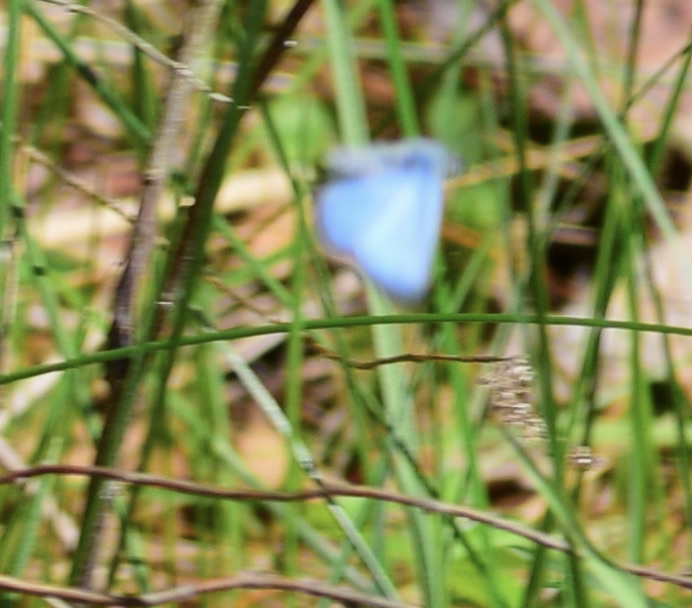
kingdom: Animalia
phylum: Arthropoda
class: Insecta
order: Lepidoptera
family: Lycaenidae
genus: Glaucopsyche
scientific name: Glaucopsyche lygdamus
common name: Silvery blue
